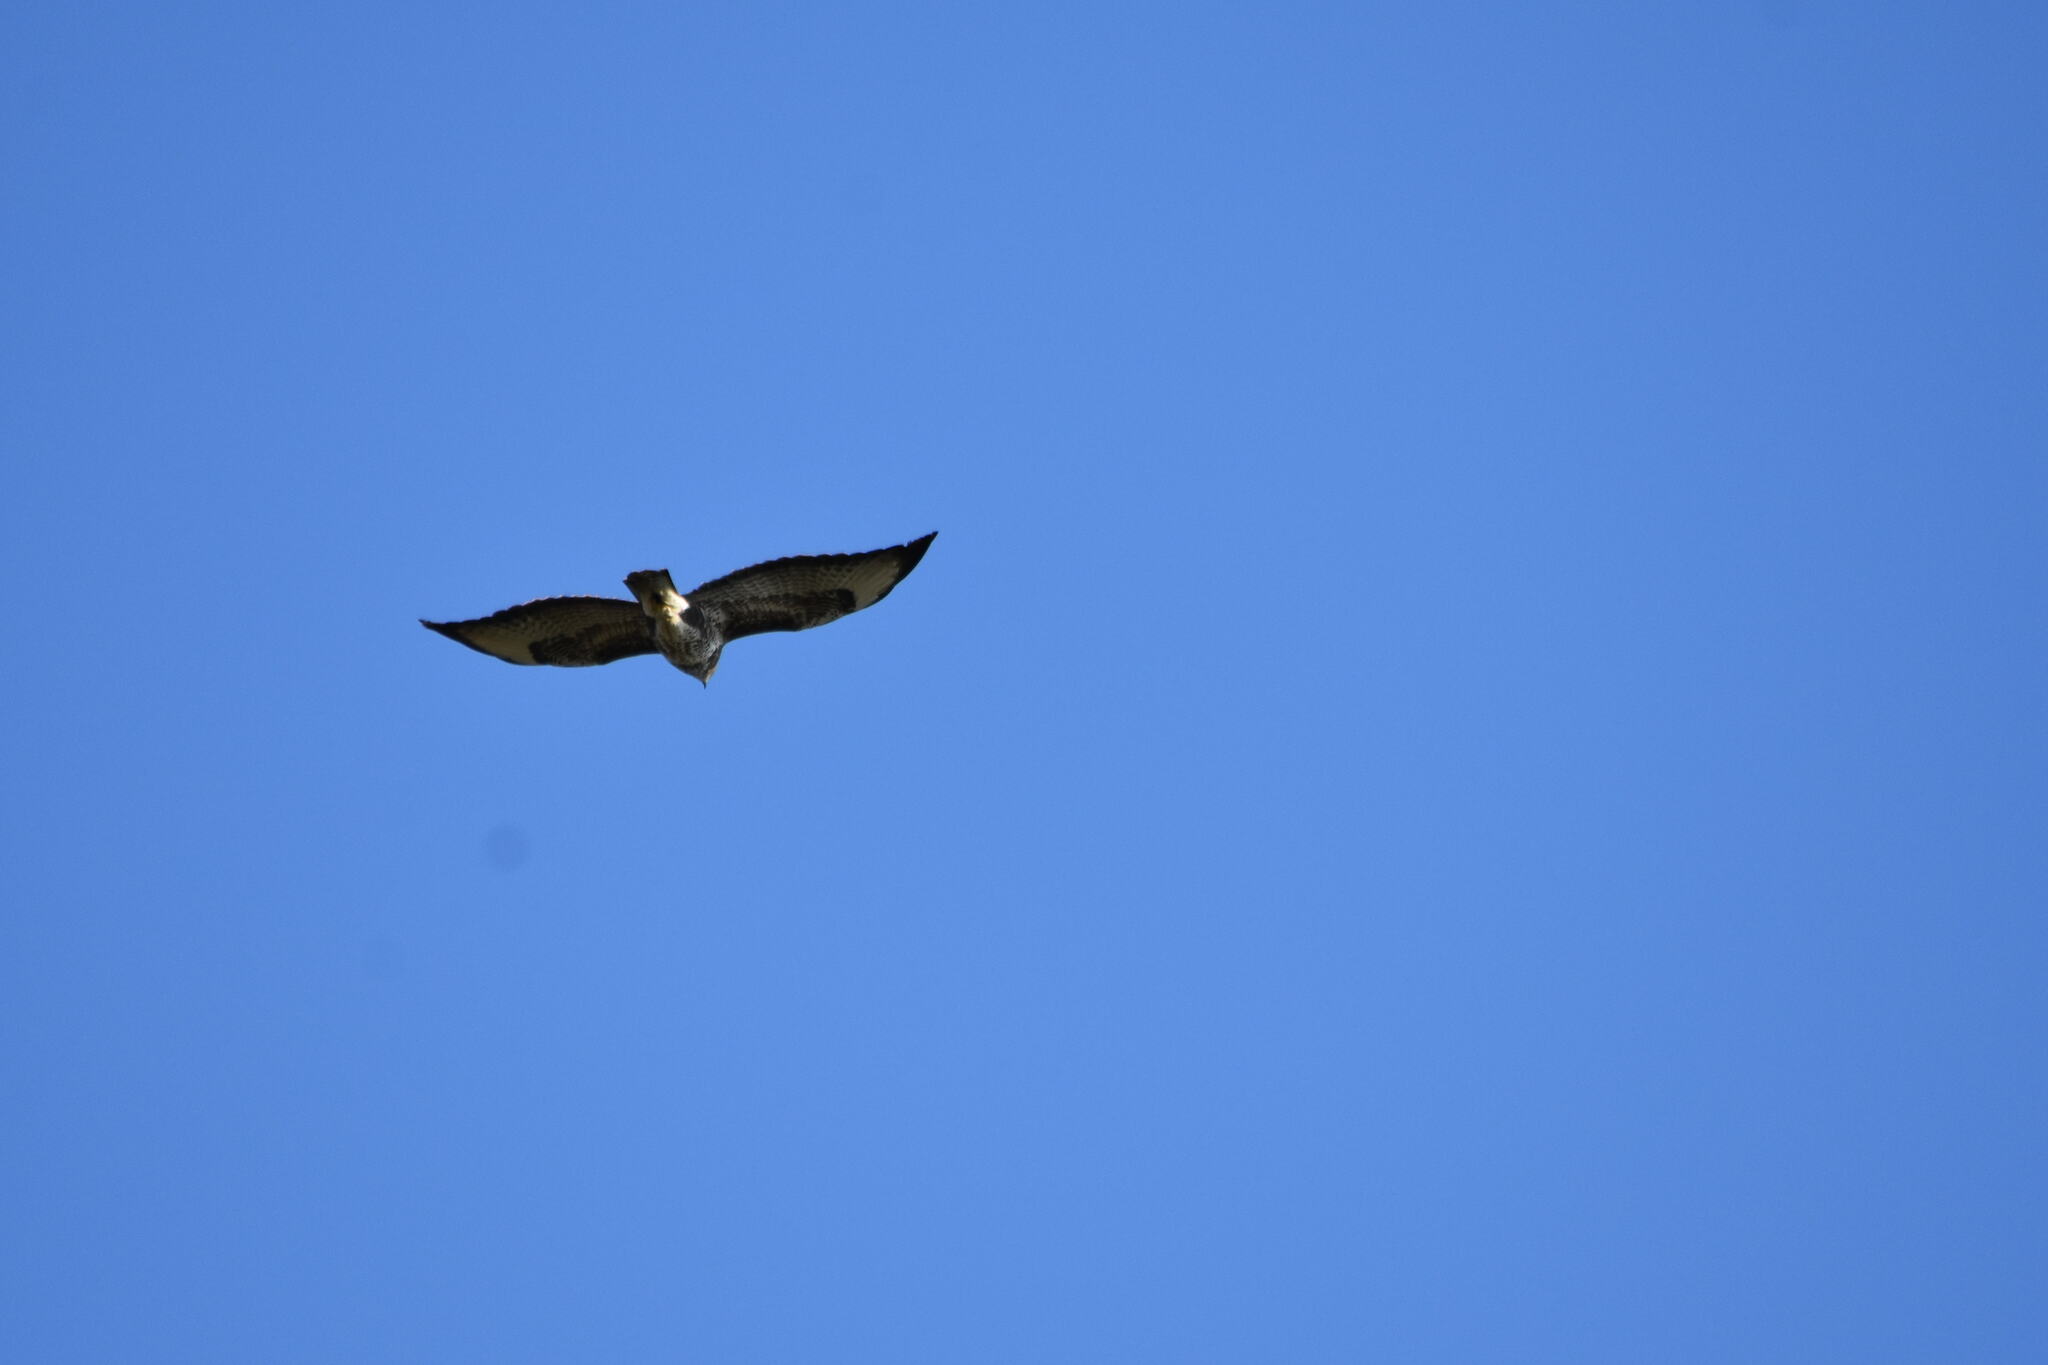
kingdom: Animalia
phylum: Chordata
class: Aves
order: Accipitriformes
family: Accipitridae
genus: Buteo
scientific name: Buteo buteo
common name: Common buzzard
